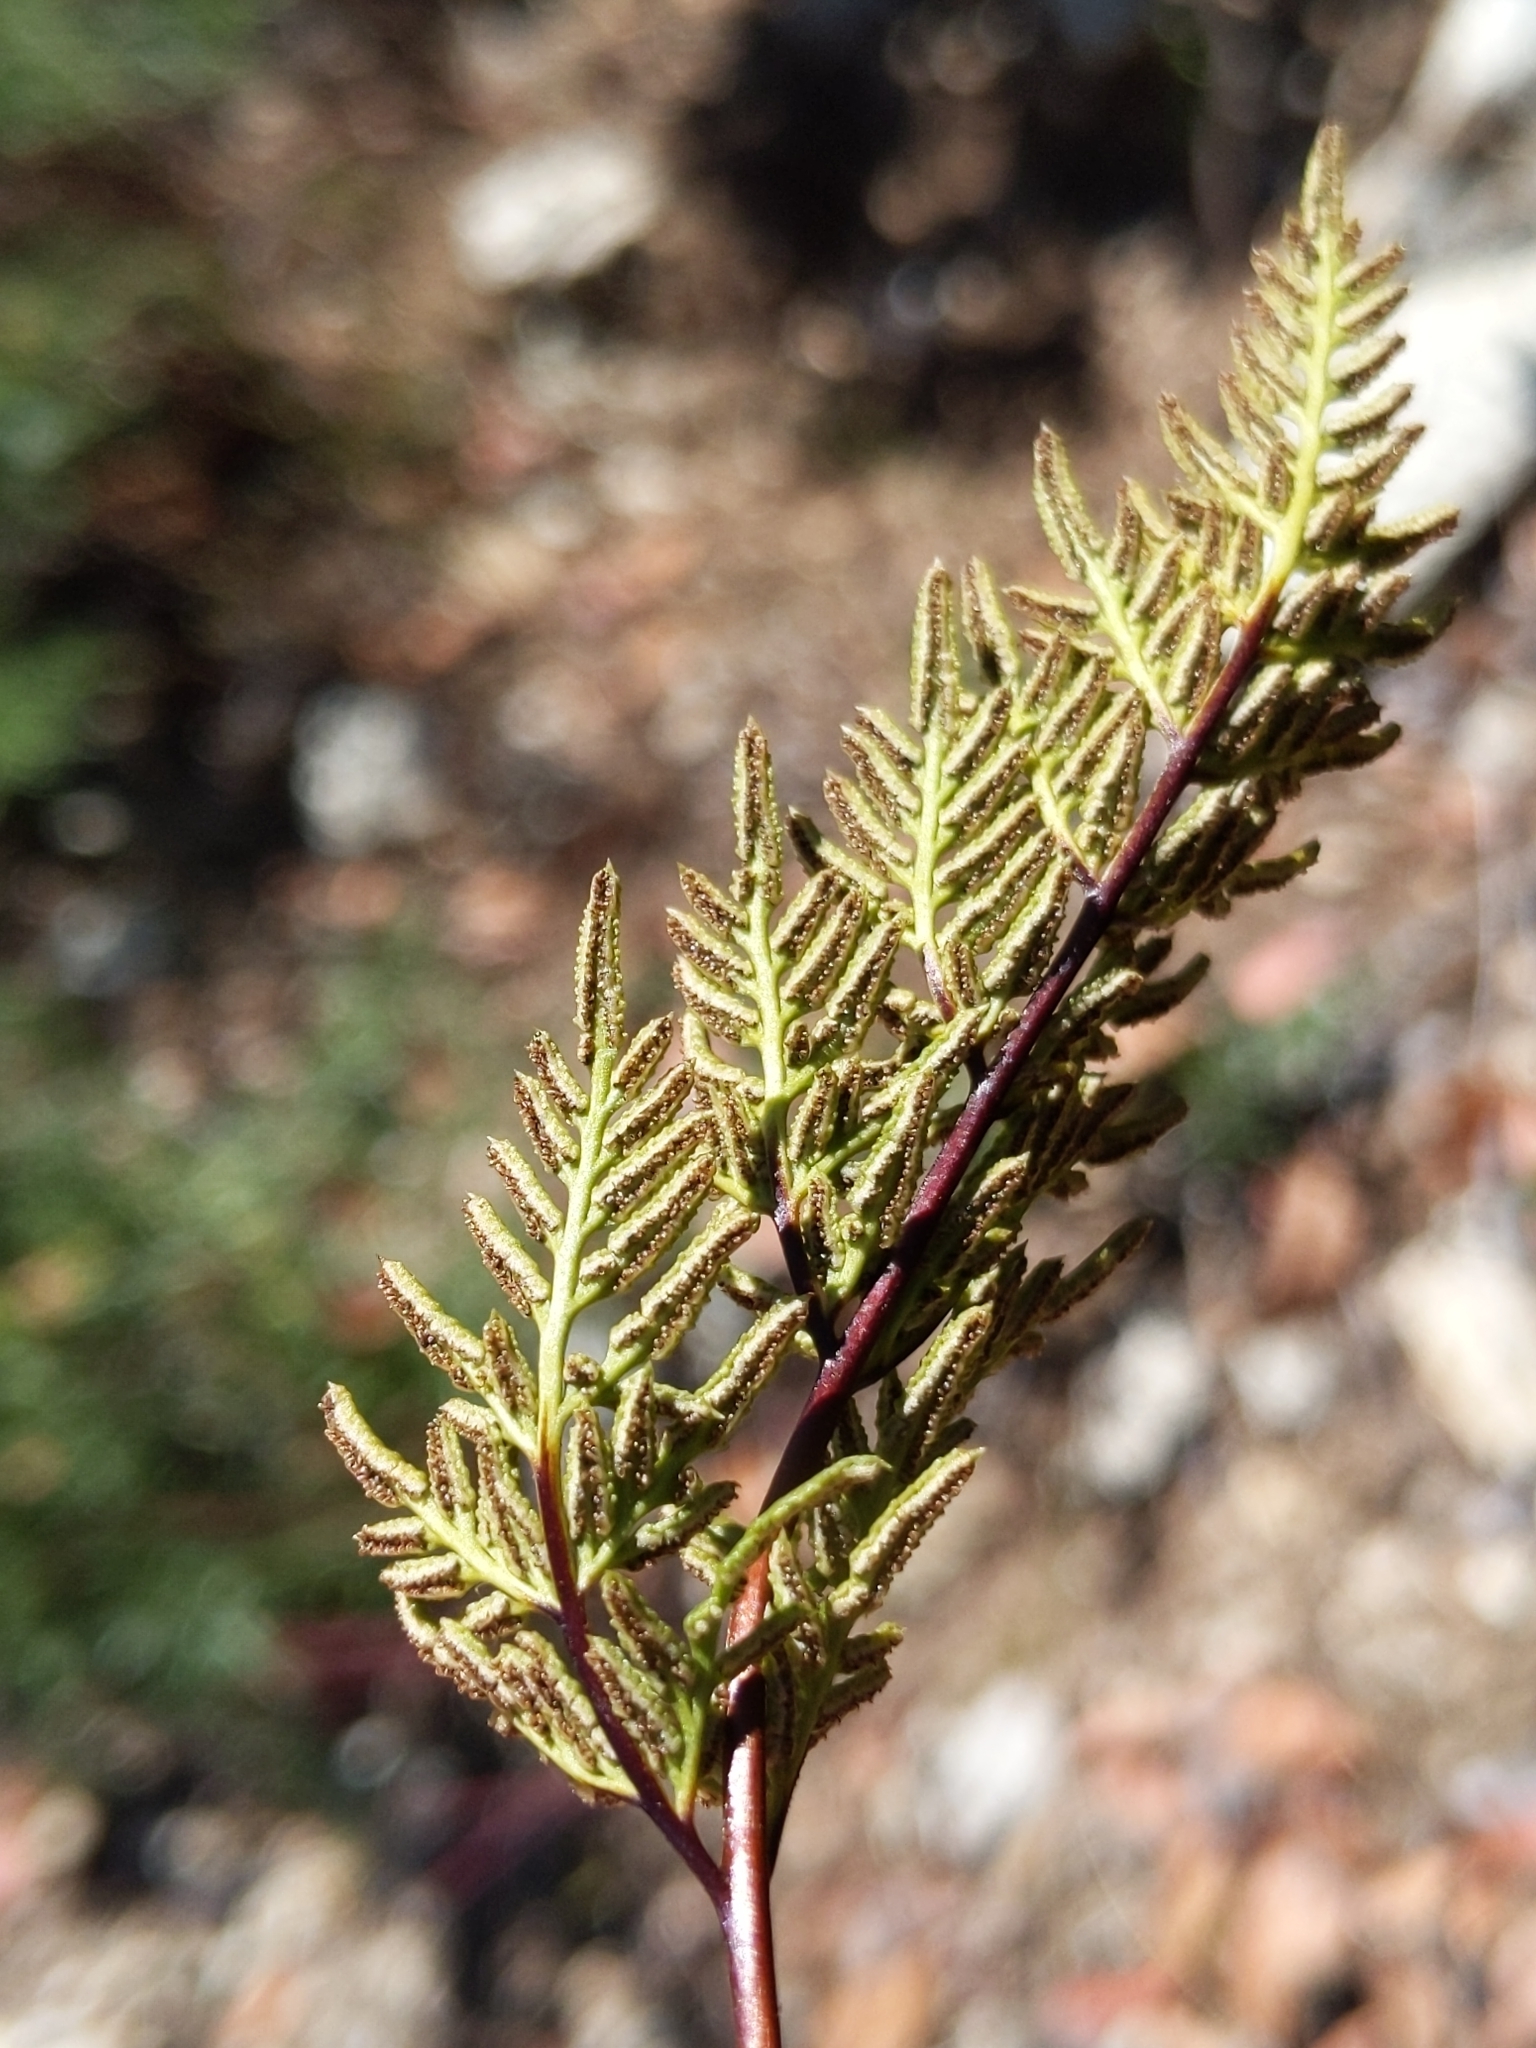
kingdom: Plantae
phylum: Tracheophyta
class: Polypodiopsida
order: Polypodiales
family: Pteridaceae
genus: Aspidotis
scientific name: Aspidotis densa
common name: Indian's dream
